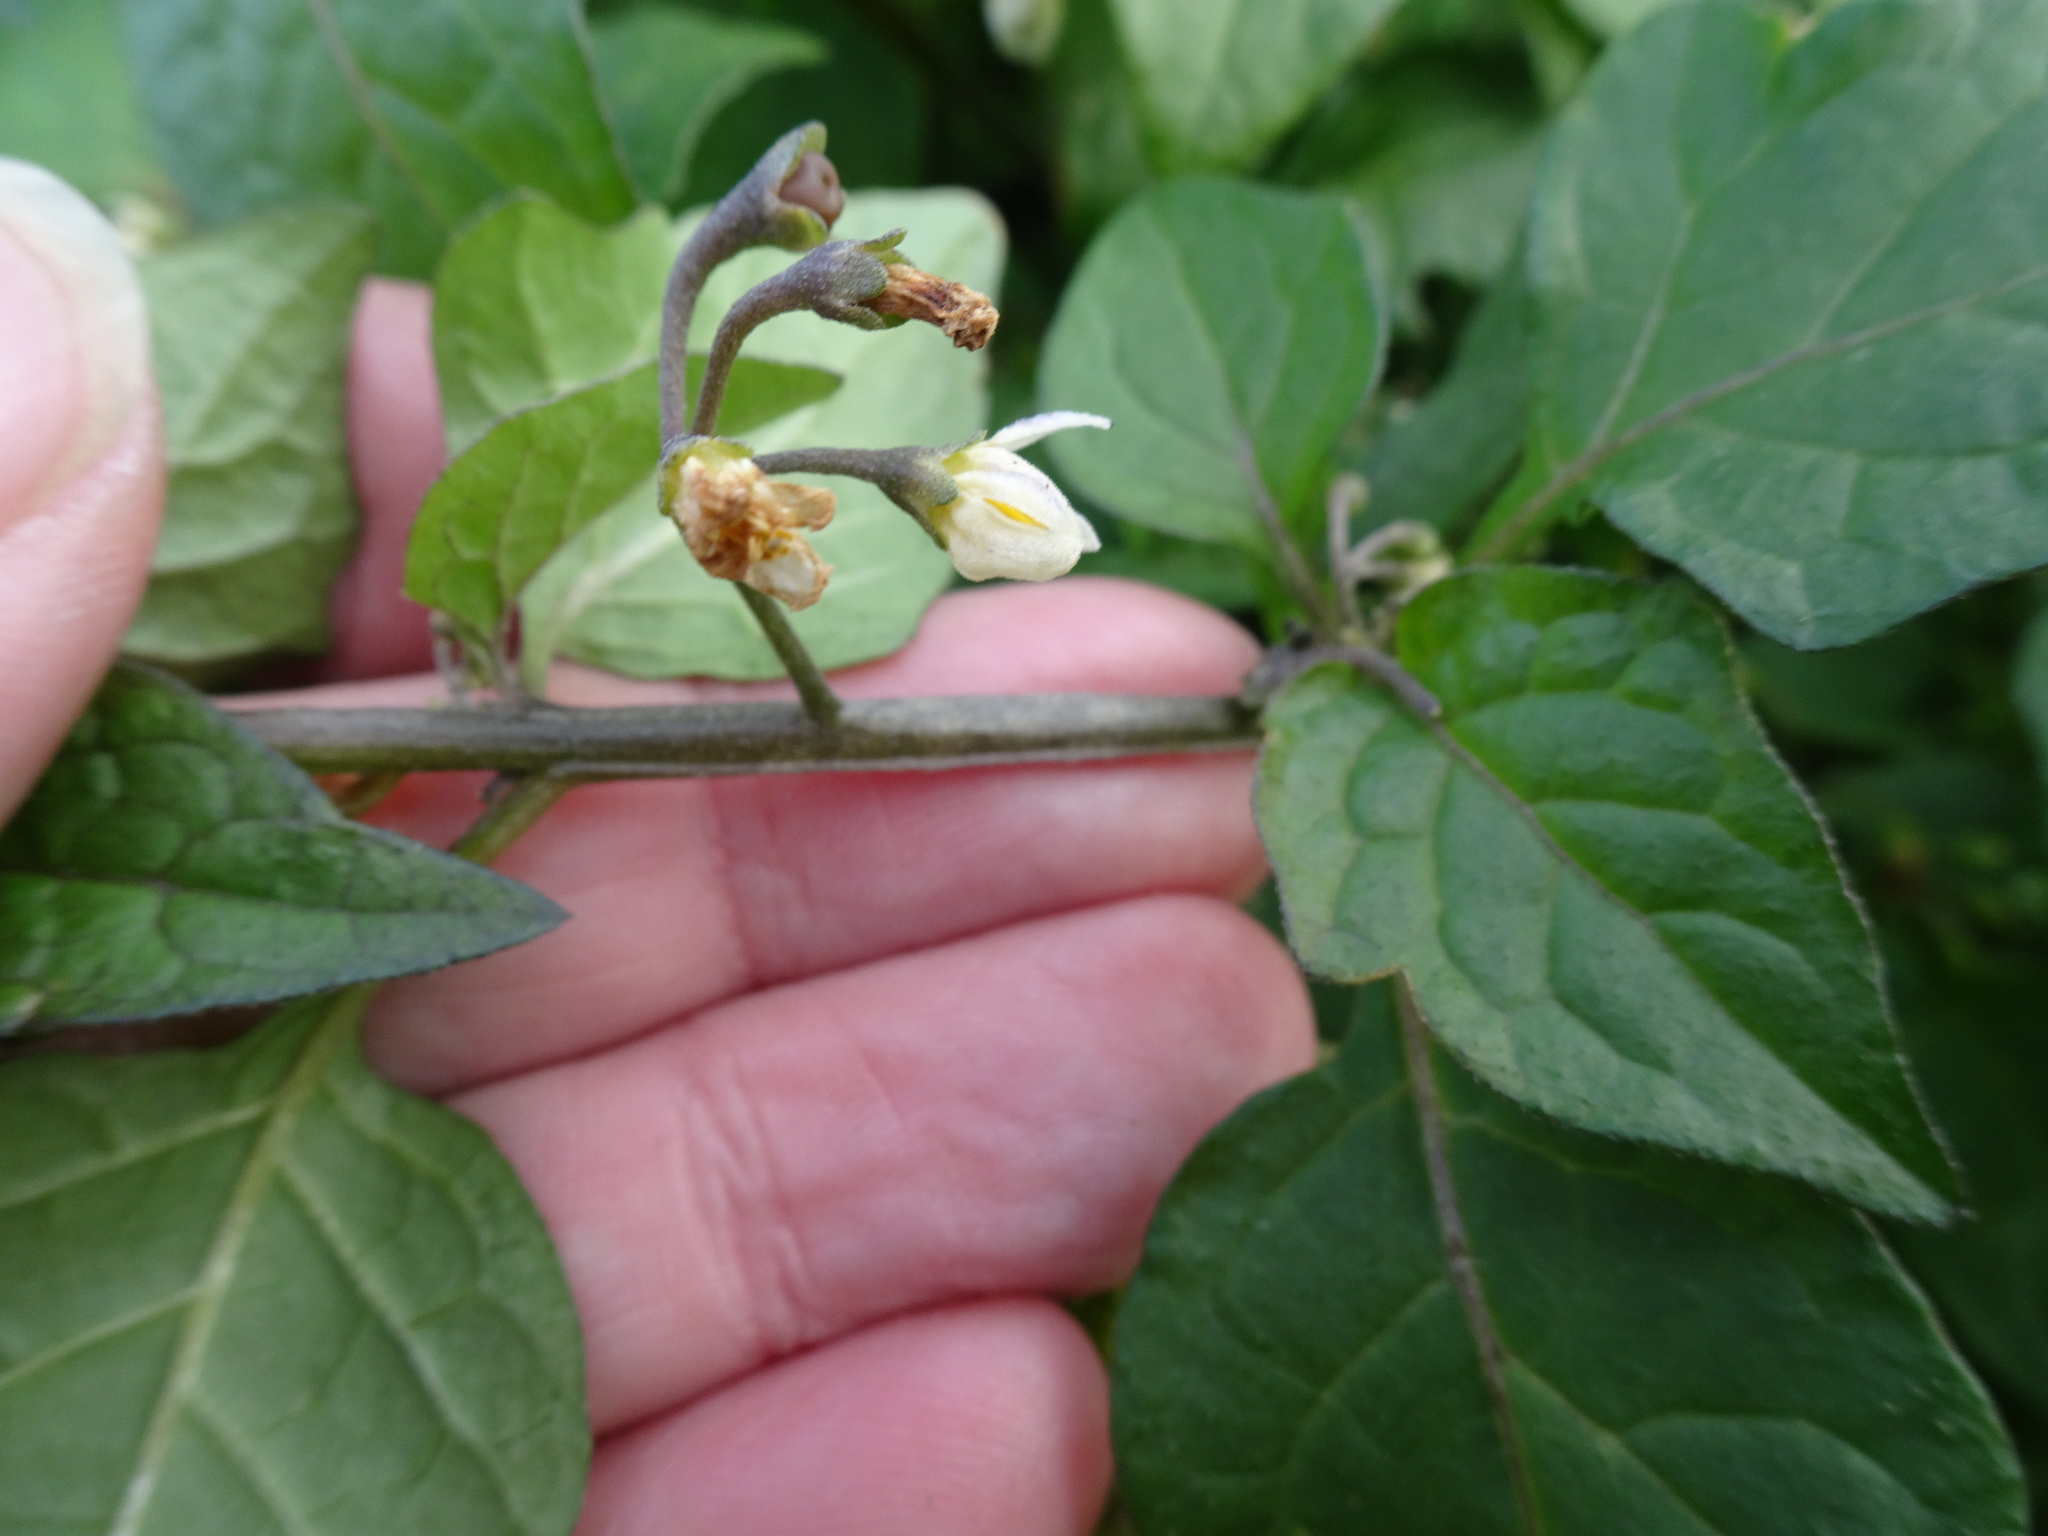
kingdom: Plantae
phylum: Tracheophyta
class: Magnoliopsida
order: Solanales
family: Solanaceae
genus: Solanum
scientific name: Solanum nigrum
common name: Black nightshade
